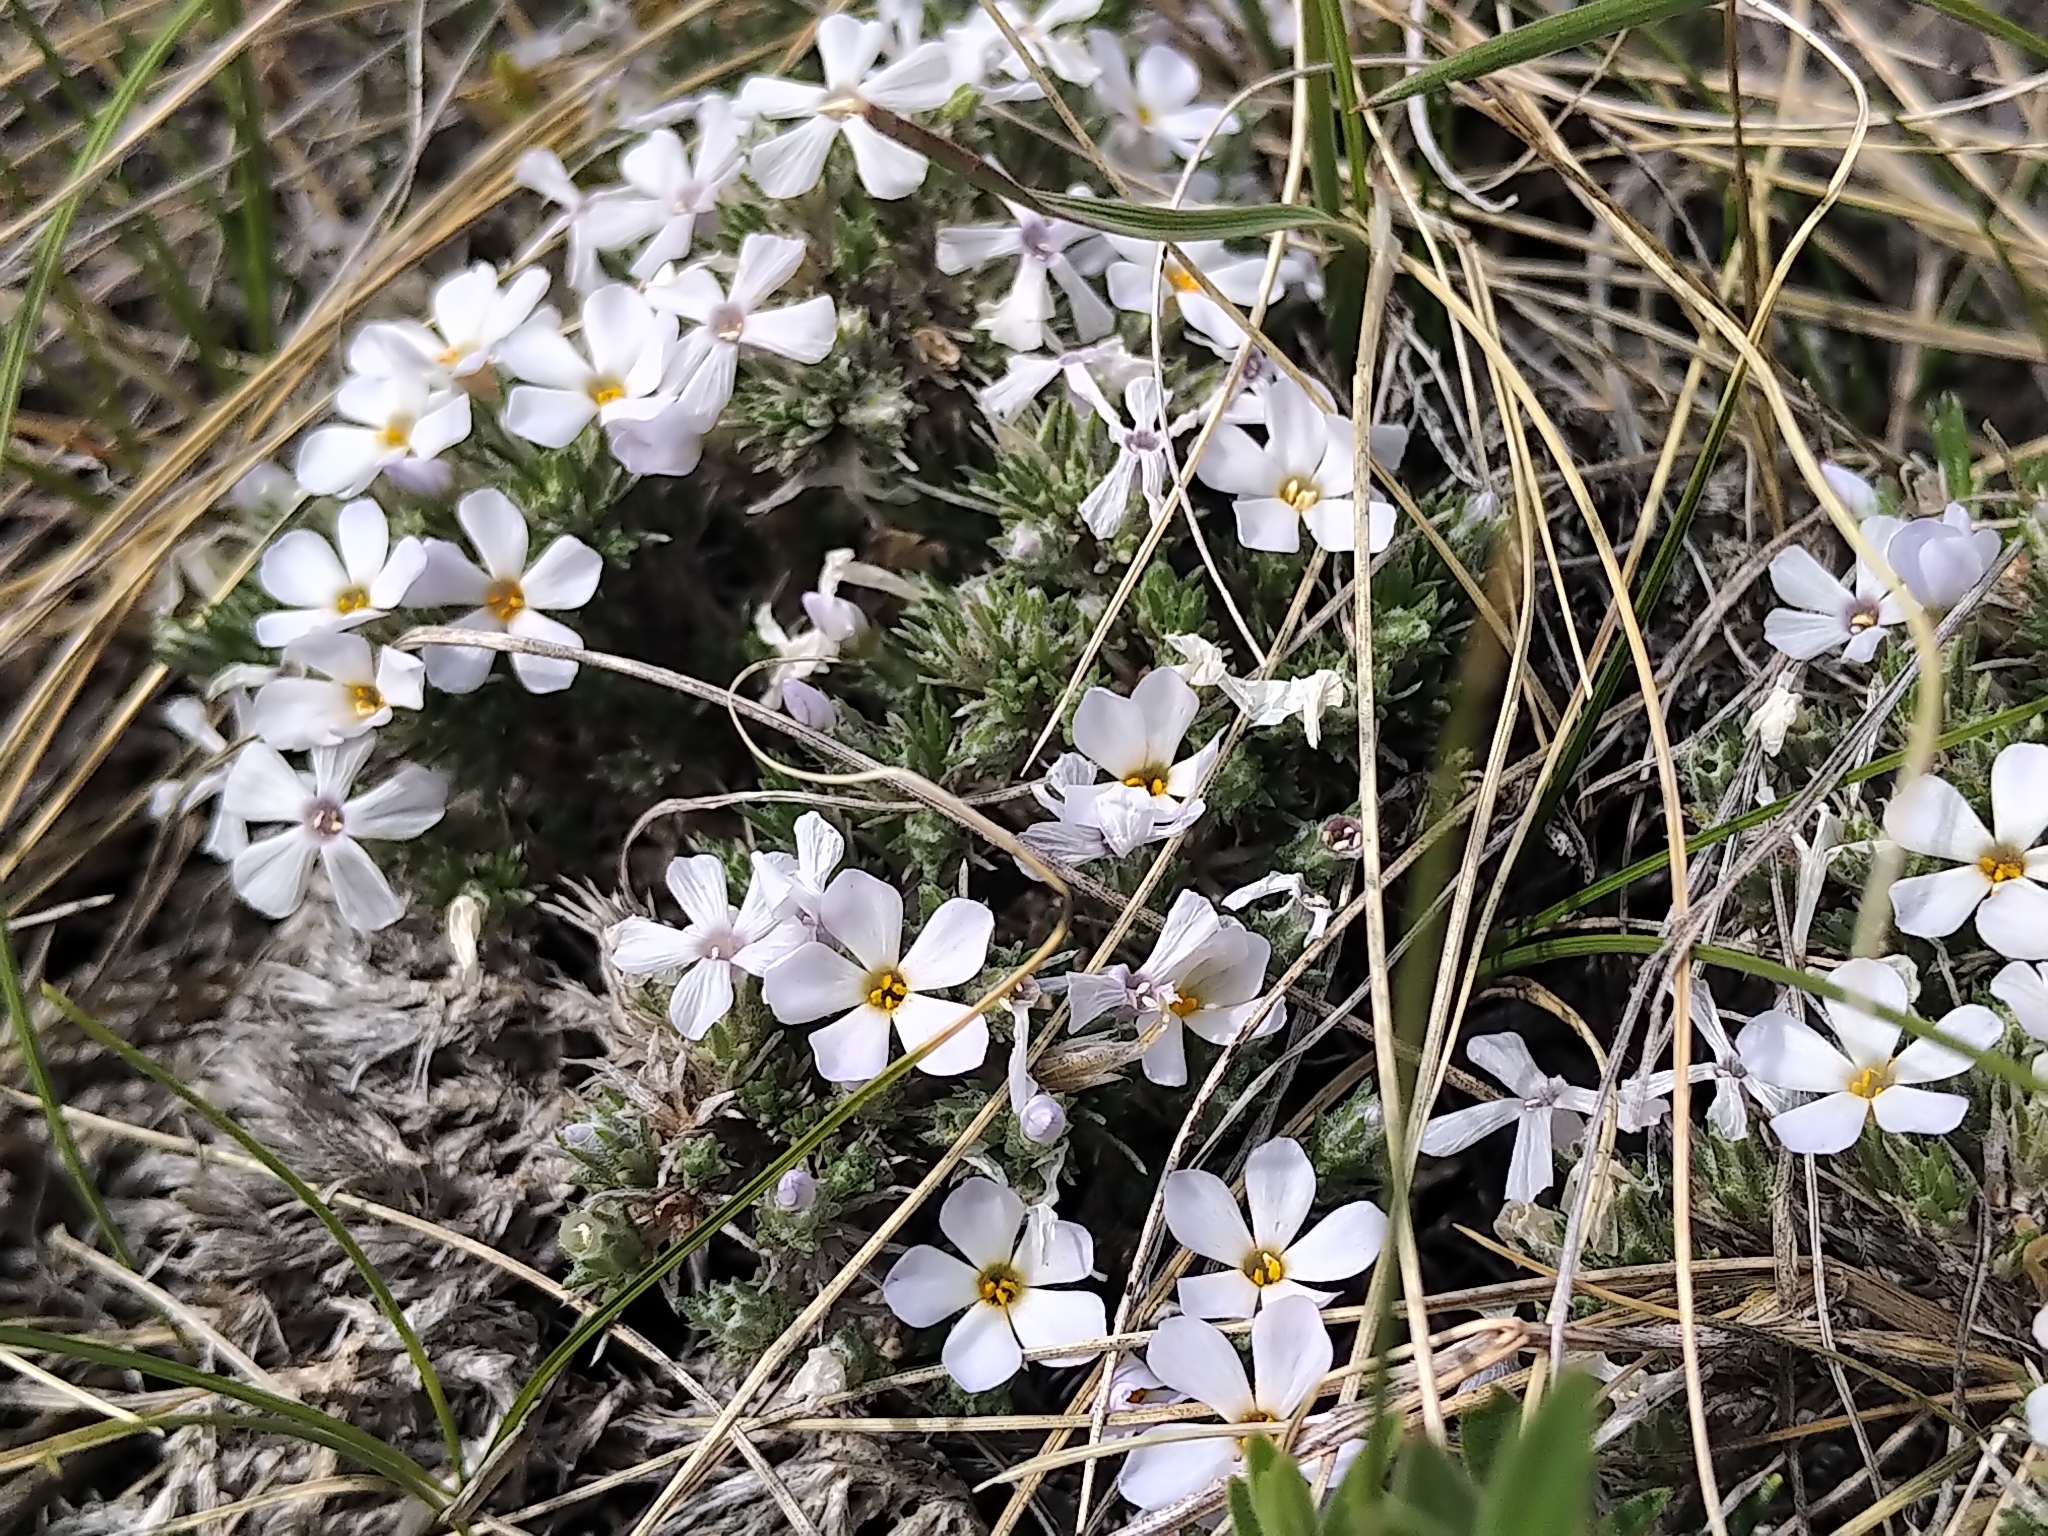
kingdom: Plantae
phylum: Tracheophyta
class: Magnoliopsida
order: Ericales
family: Polemoniaceae
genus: Phlox
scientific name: Phlox hoodii
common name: Moss phlox
